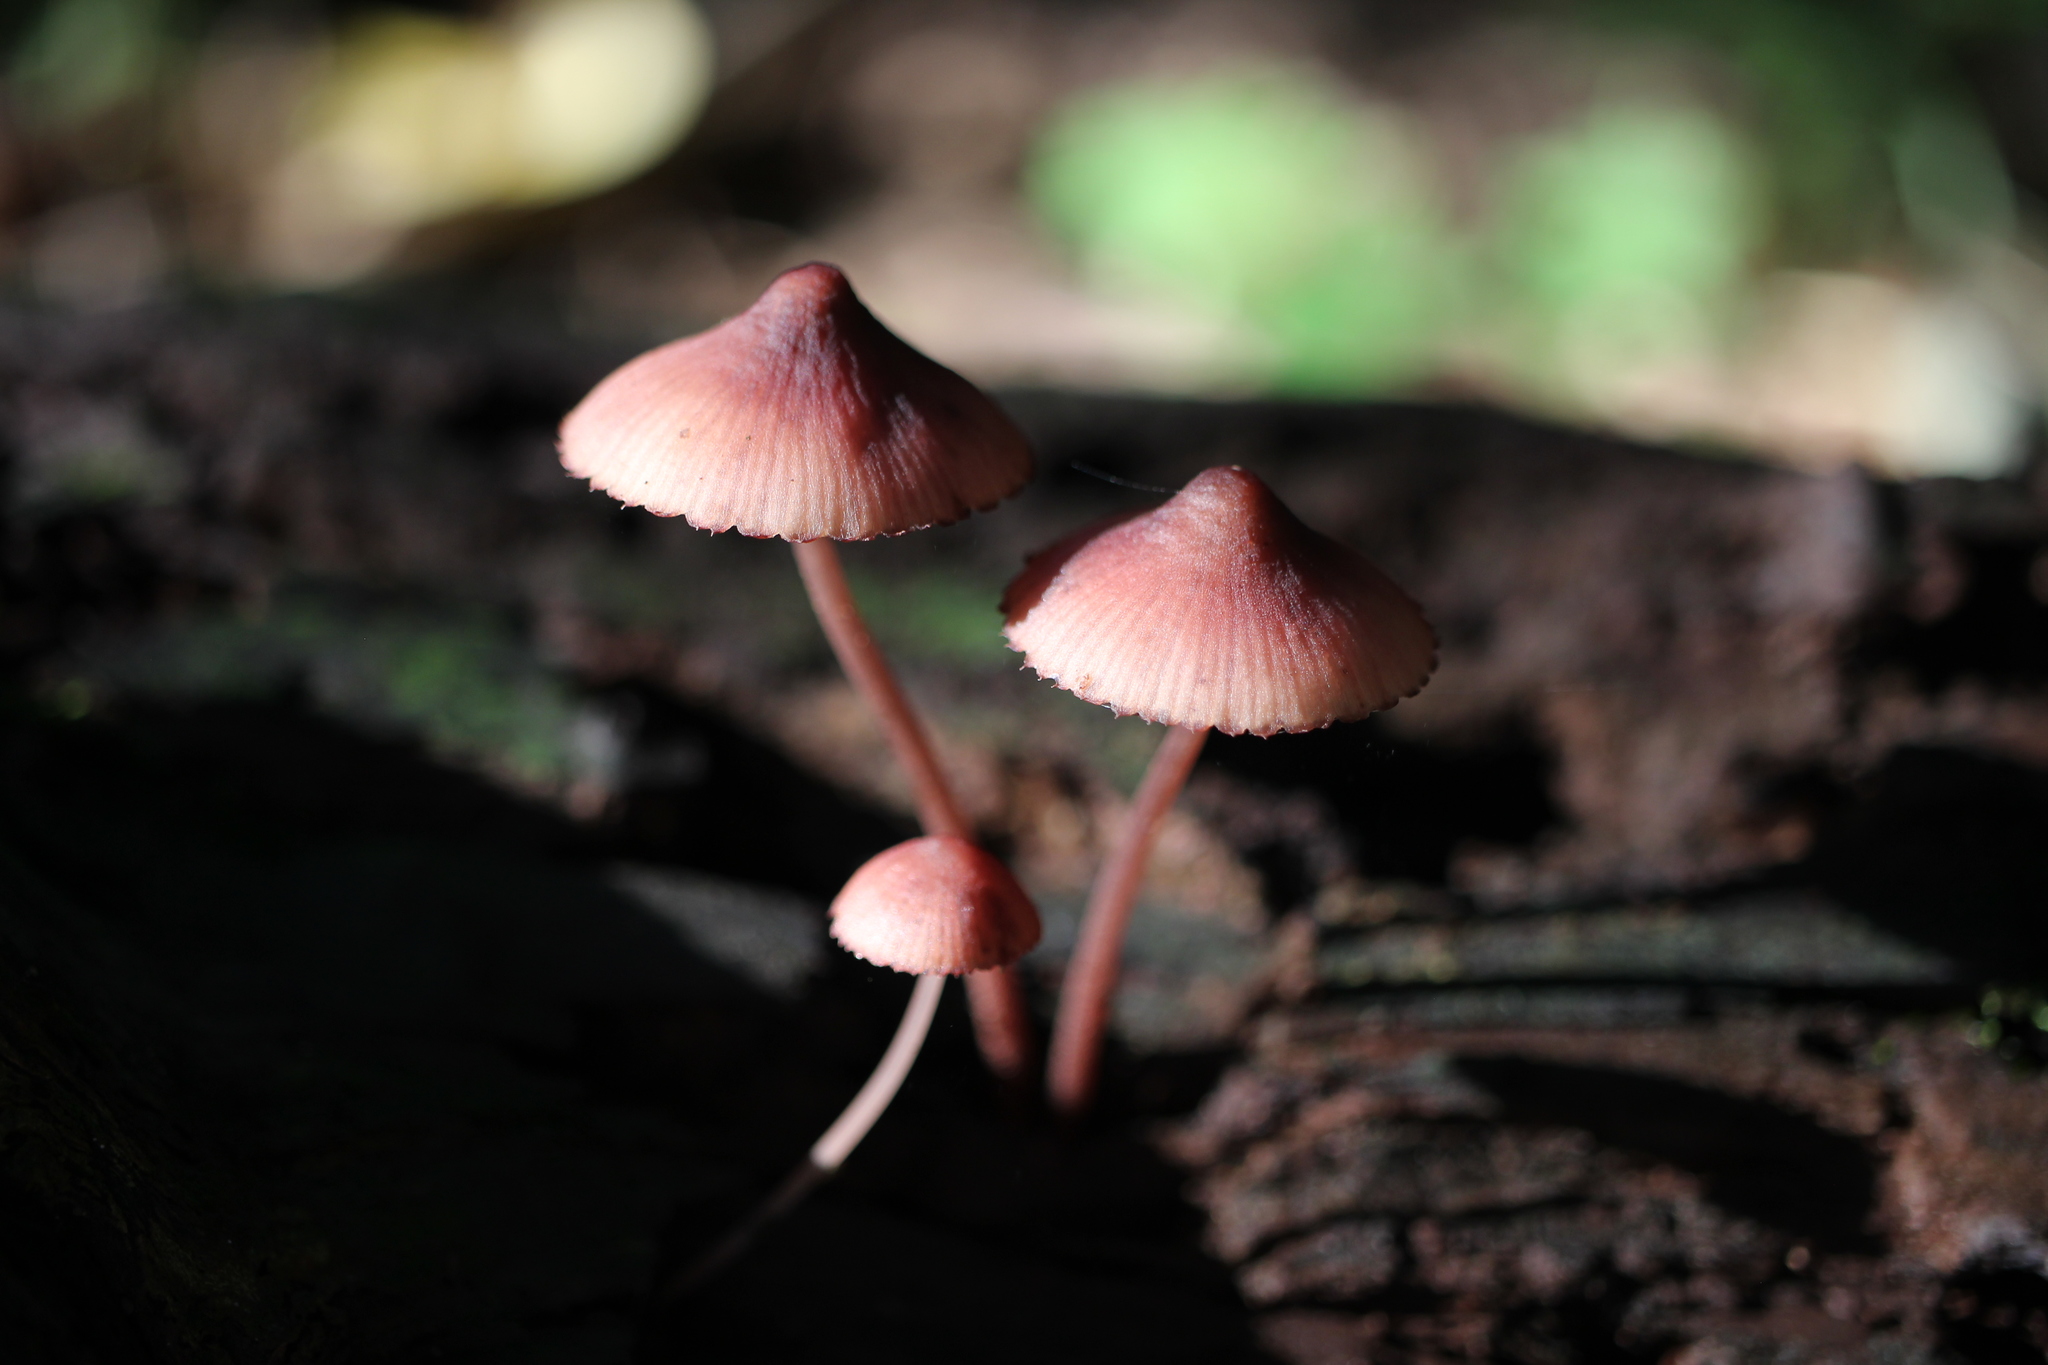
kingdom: Fungi
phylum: Basidiomycota
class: Agaricomycetes
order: Agaricales
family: Mycenaceae
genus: Mycena
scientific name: Mycena haematopus
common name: Burgundydrop bonnet
